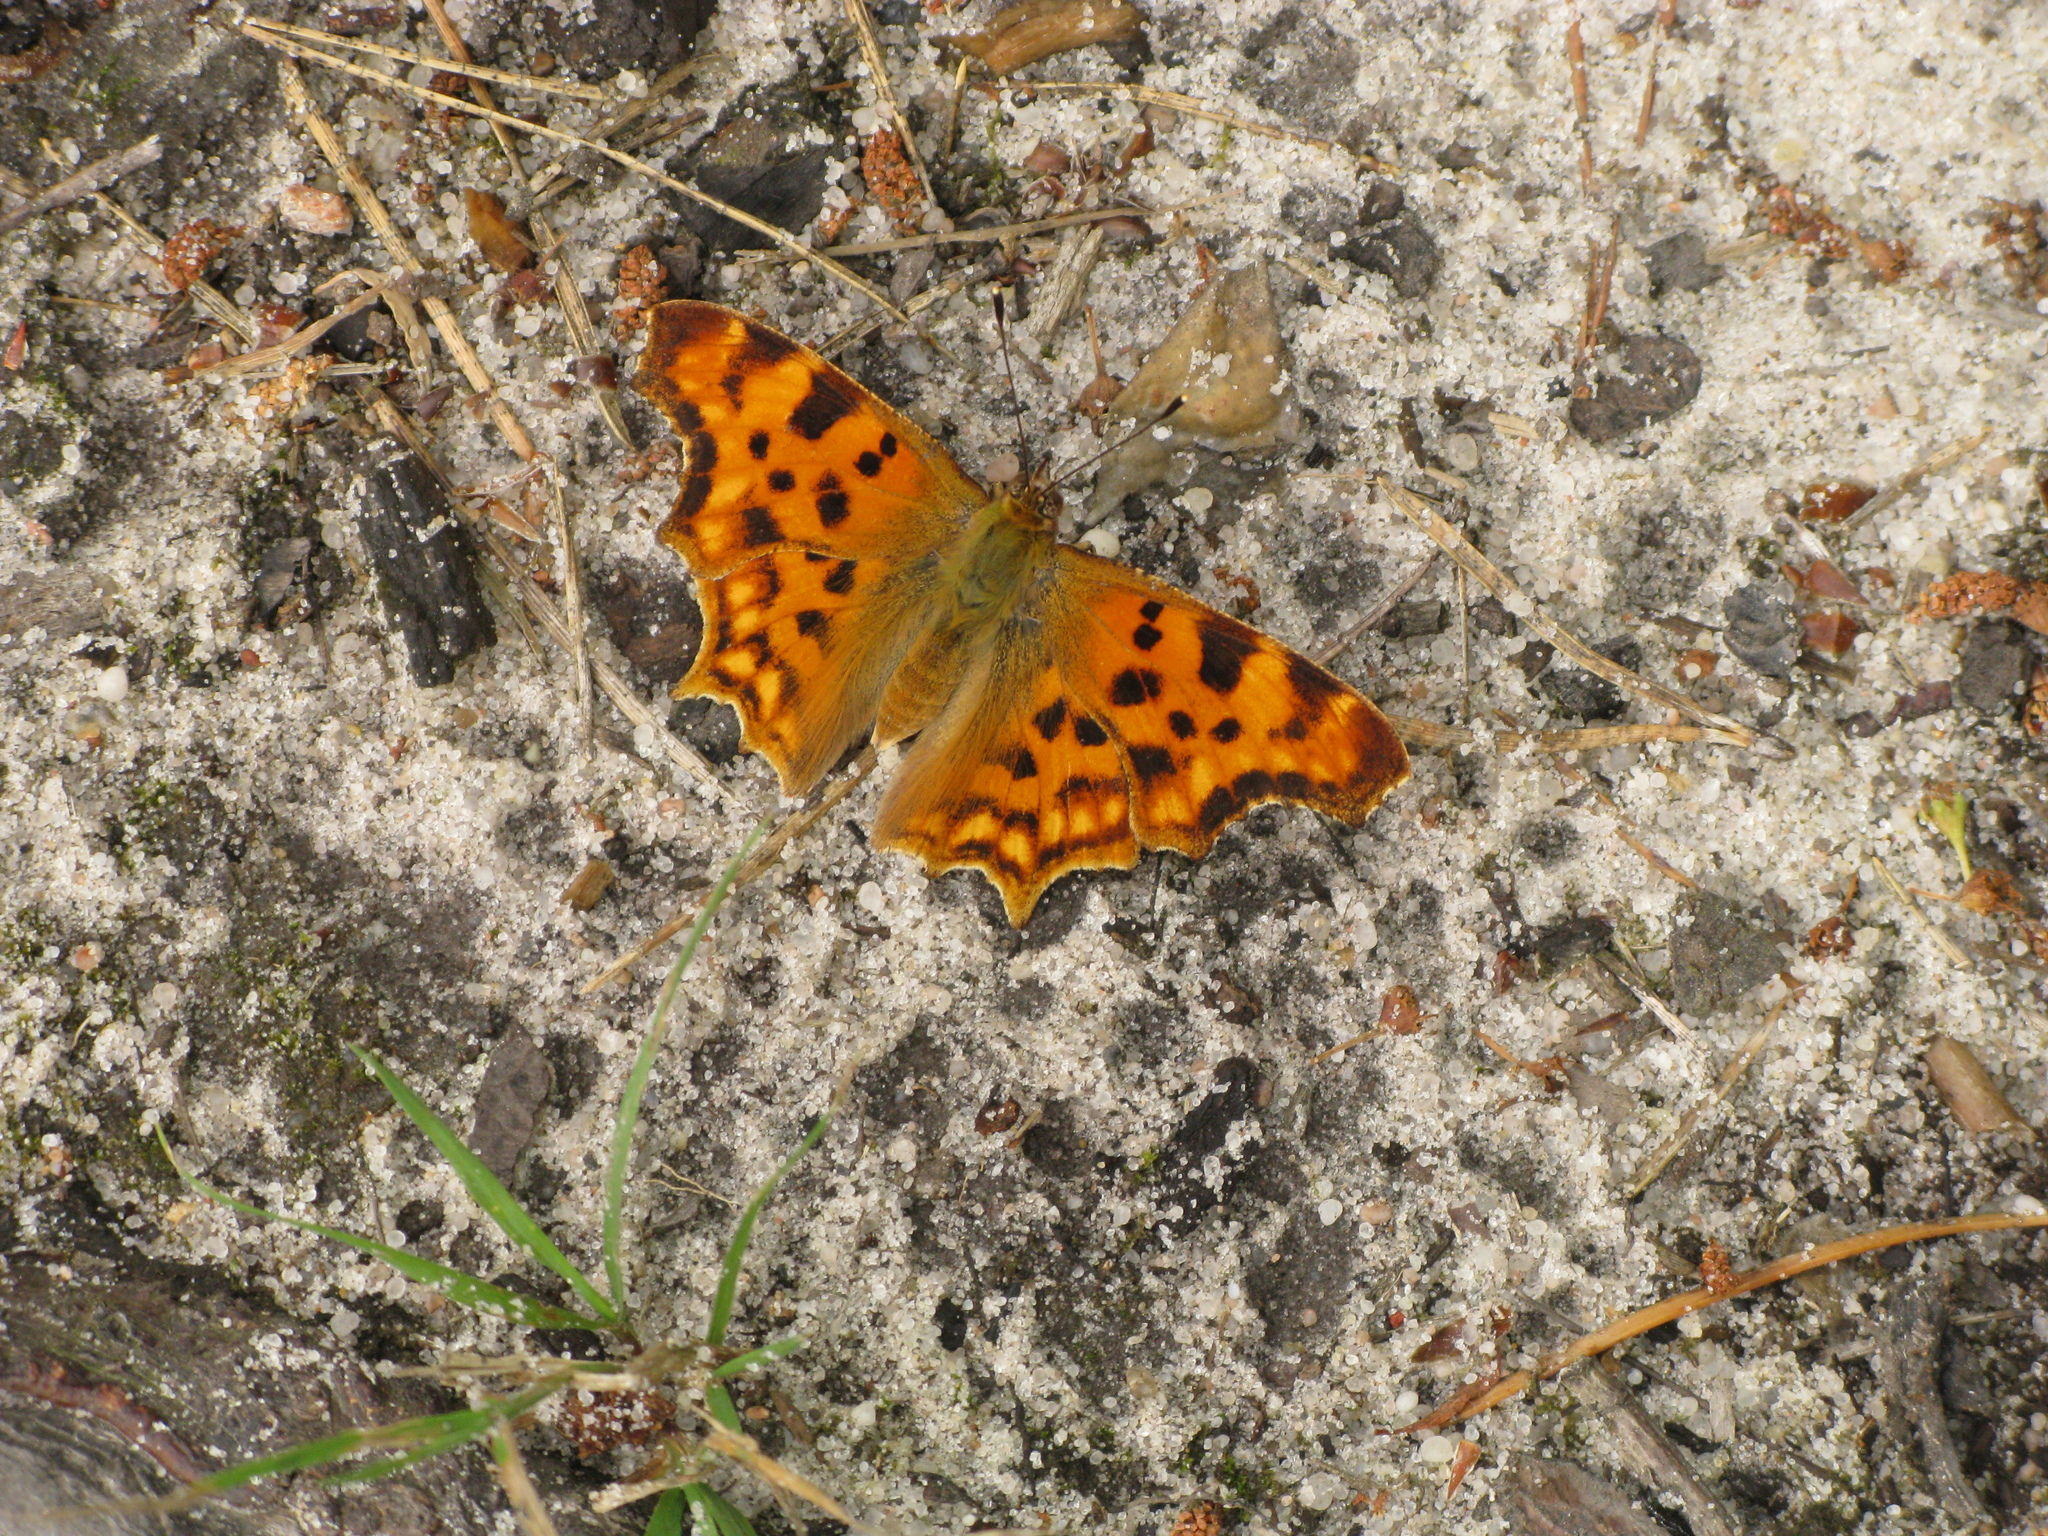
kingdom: Animalia
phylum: Arthropoda
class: Insecta
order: Lepidoptera
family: Nymphalidae
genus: Polygonia
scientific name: Polygonia c-album
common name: Comma
